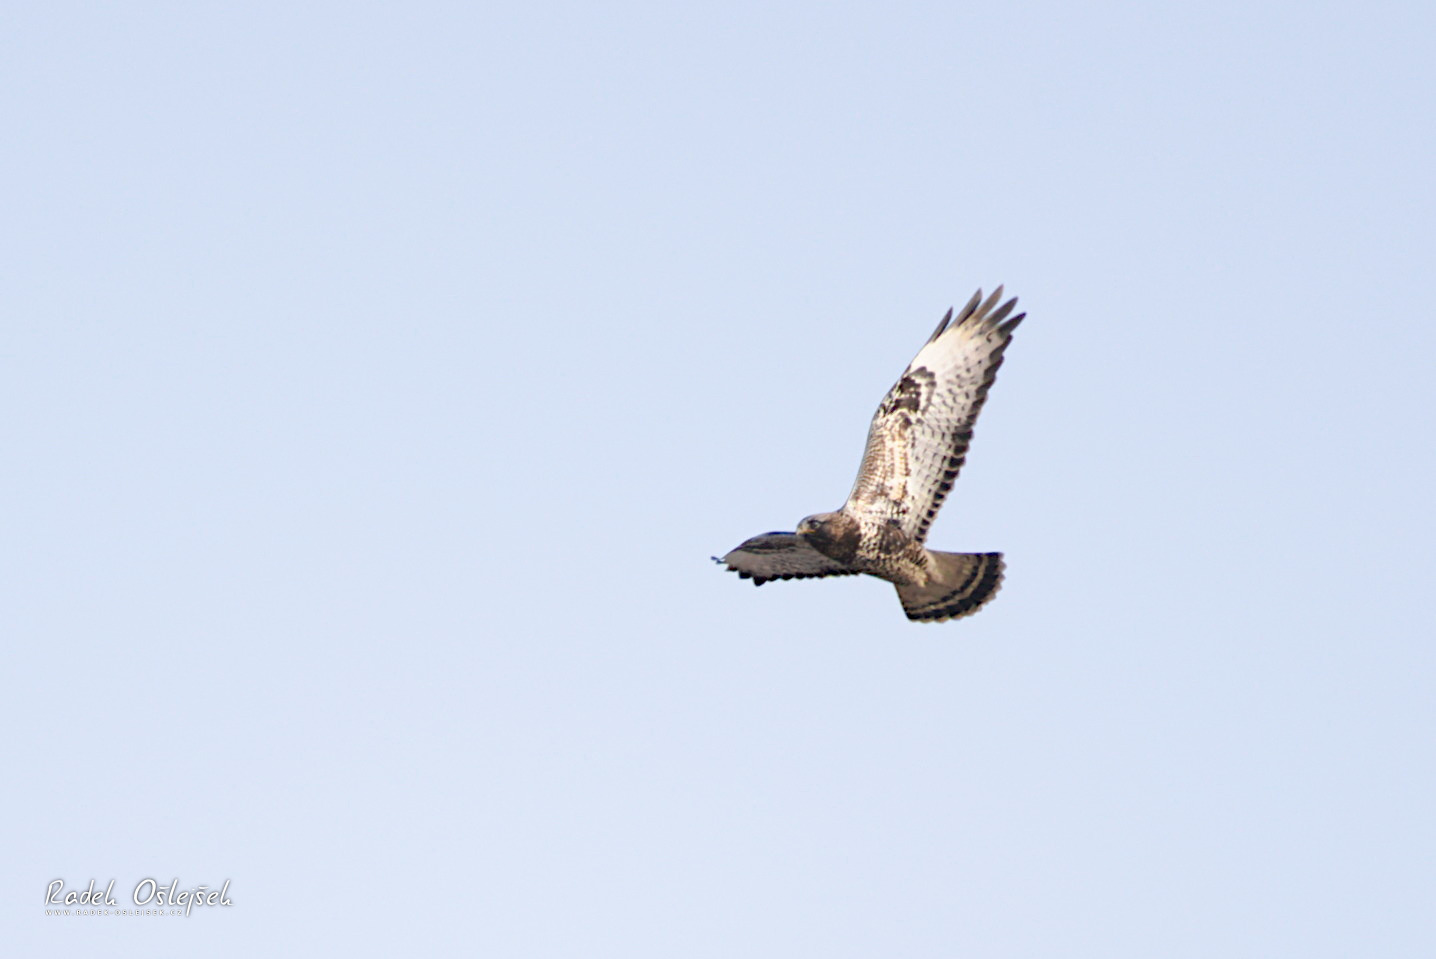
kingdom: Animalia
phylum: Chordata
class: Aves
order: Accipitriformes
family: Accipitridae
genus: Buteo
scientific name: Buteo lagopus
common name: Rough-legged buzzard
